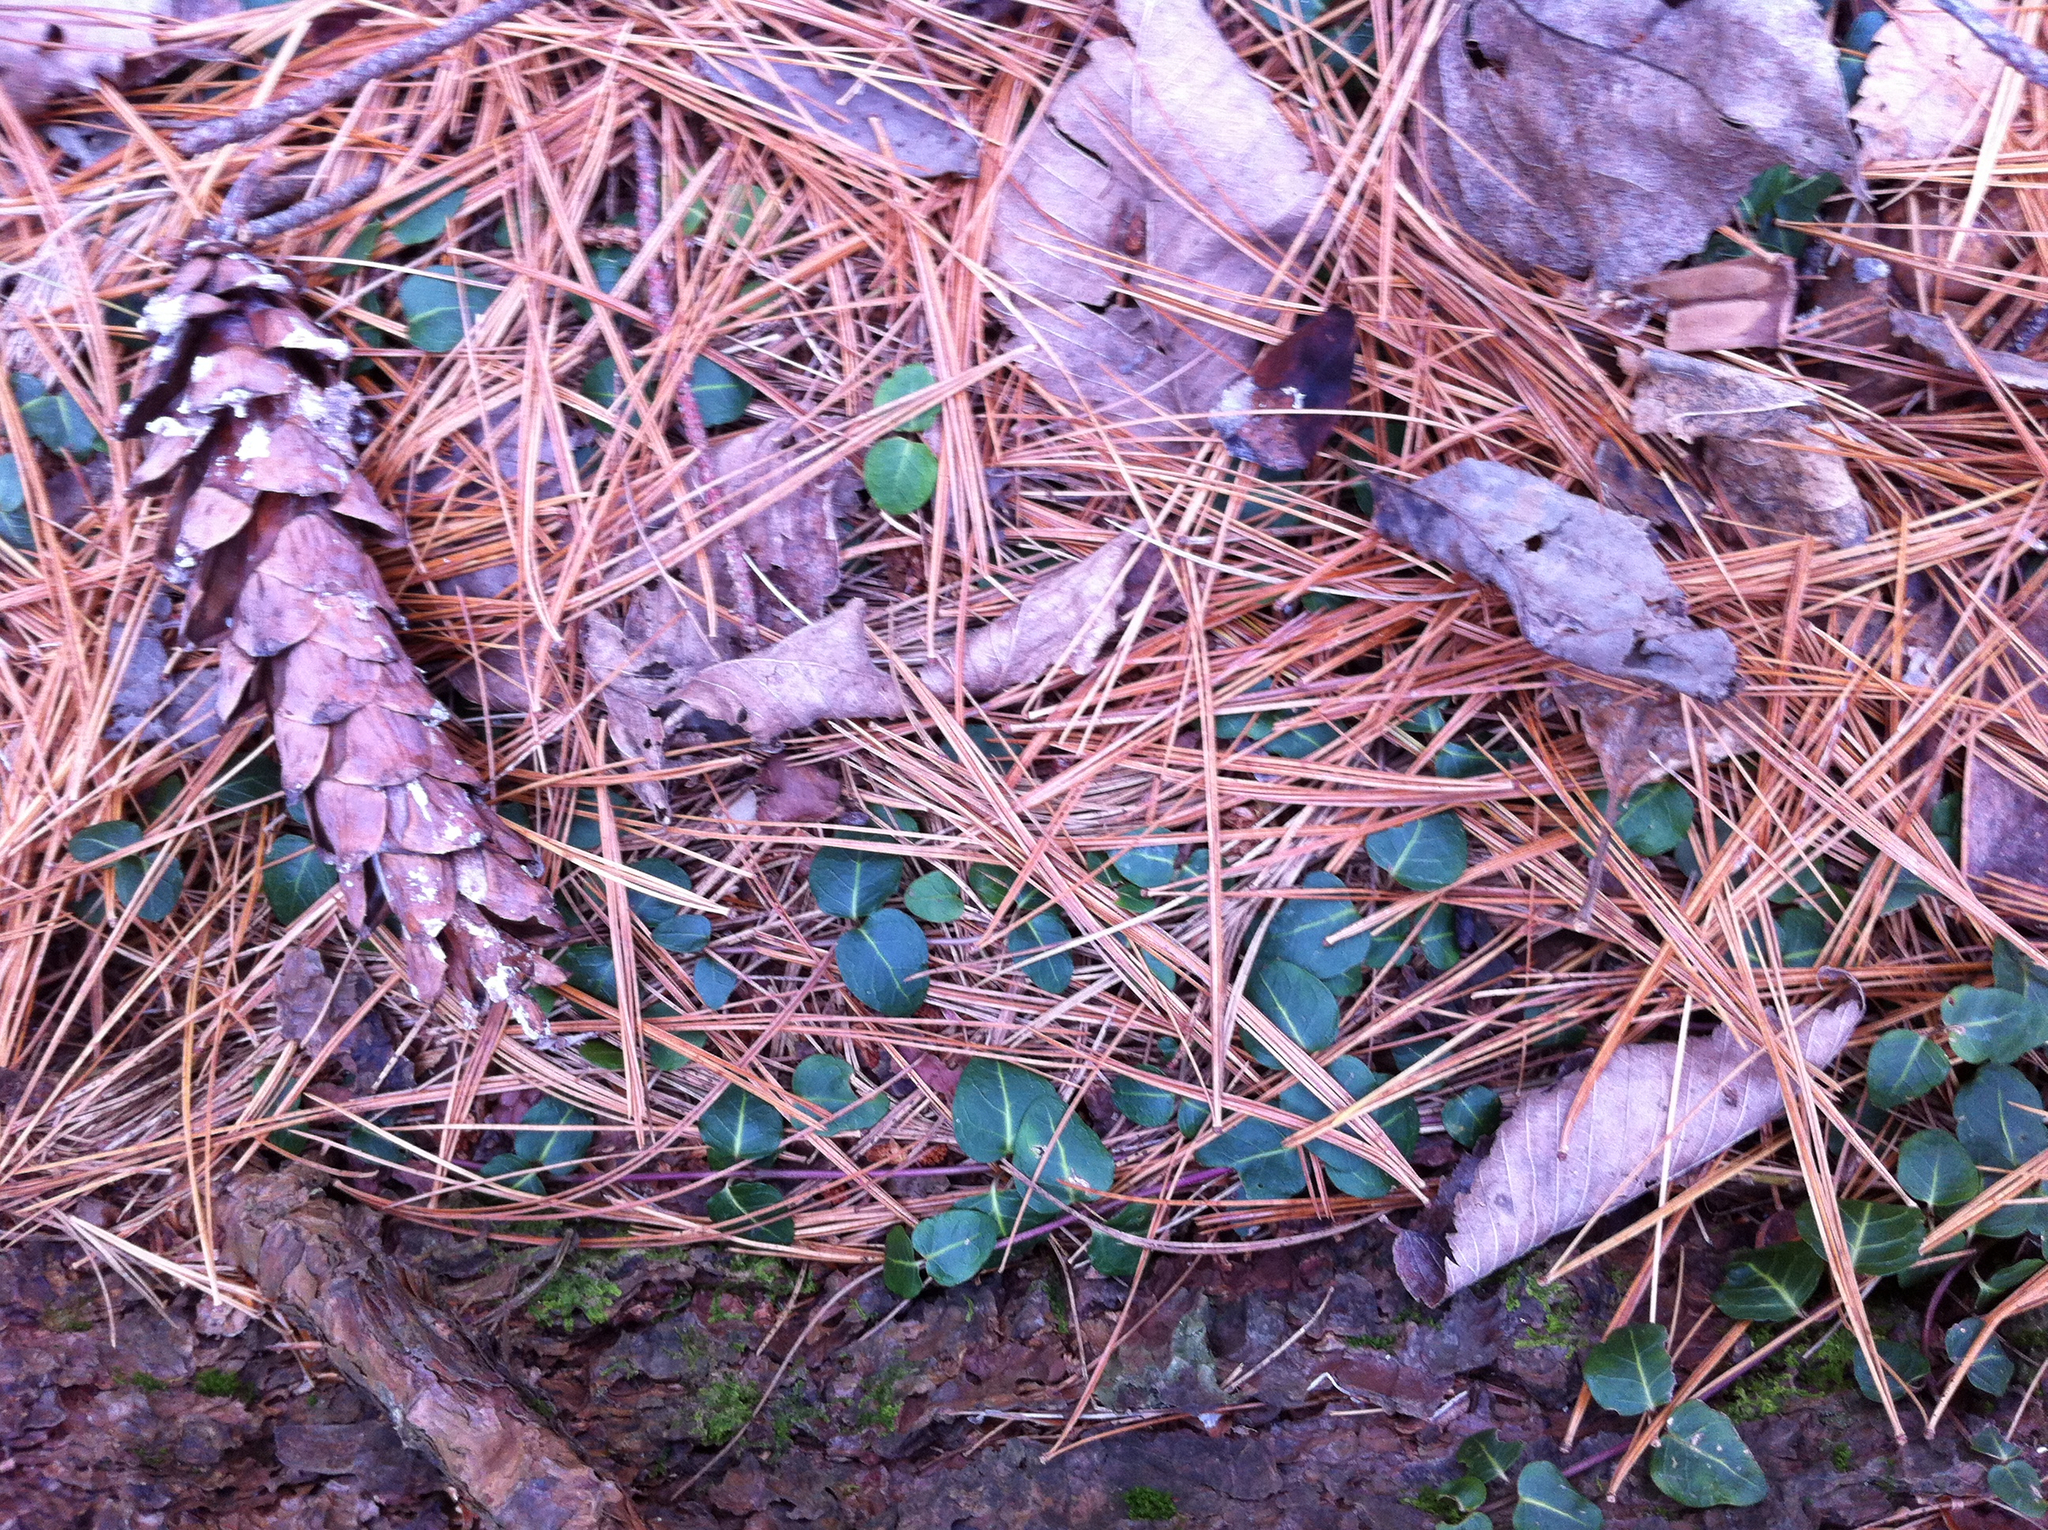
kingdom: Plantae
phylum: Tracheophyta
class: Magnoliopsida
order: Gentianales
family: Rubiaceae
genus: Mitchella
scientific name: Mitchella repens
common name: Partridge-berry
